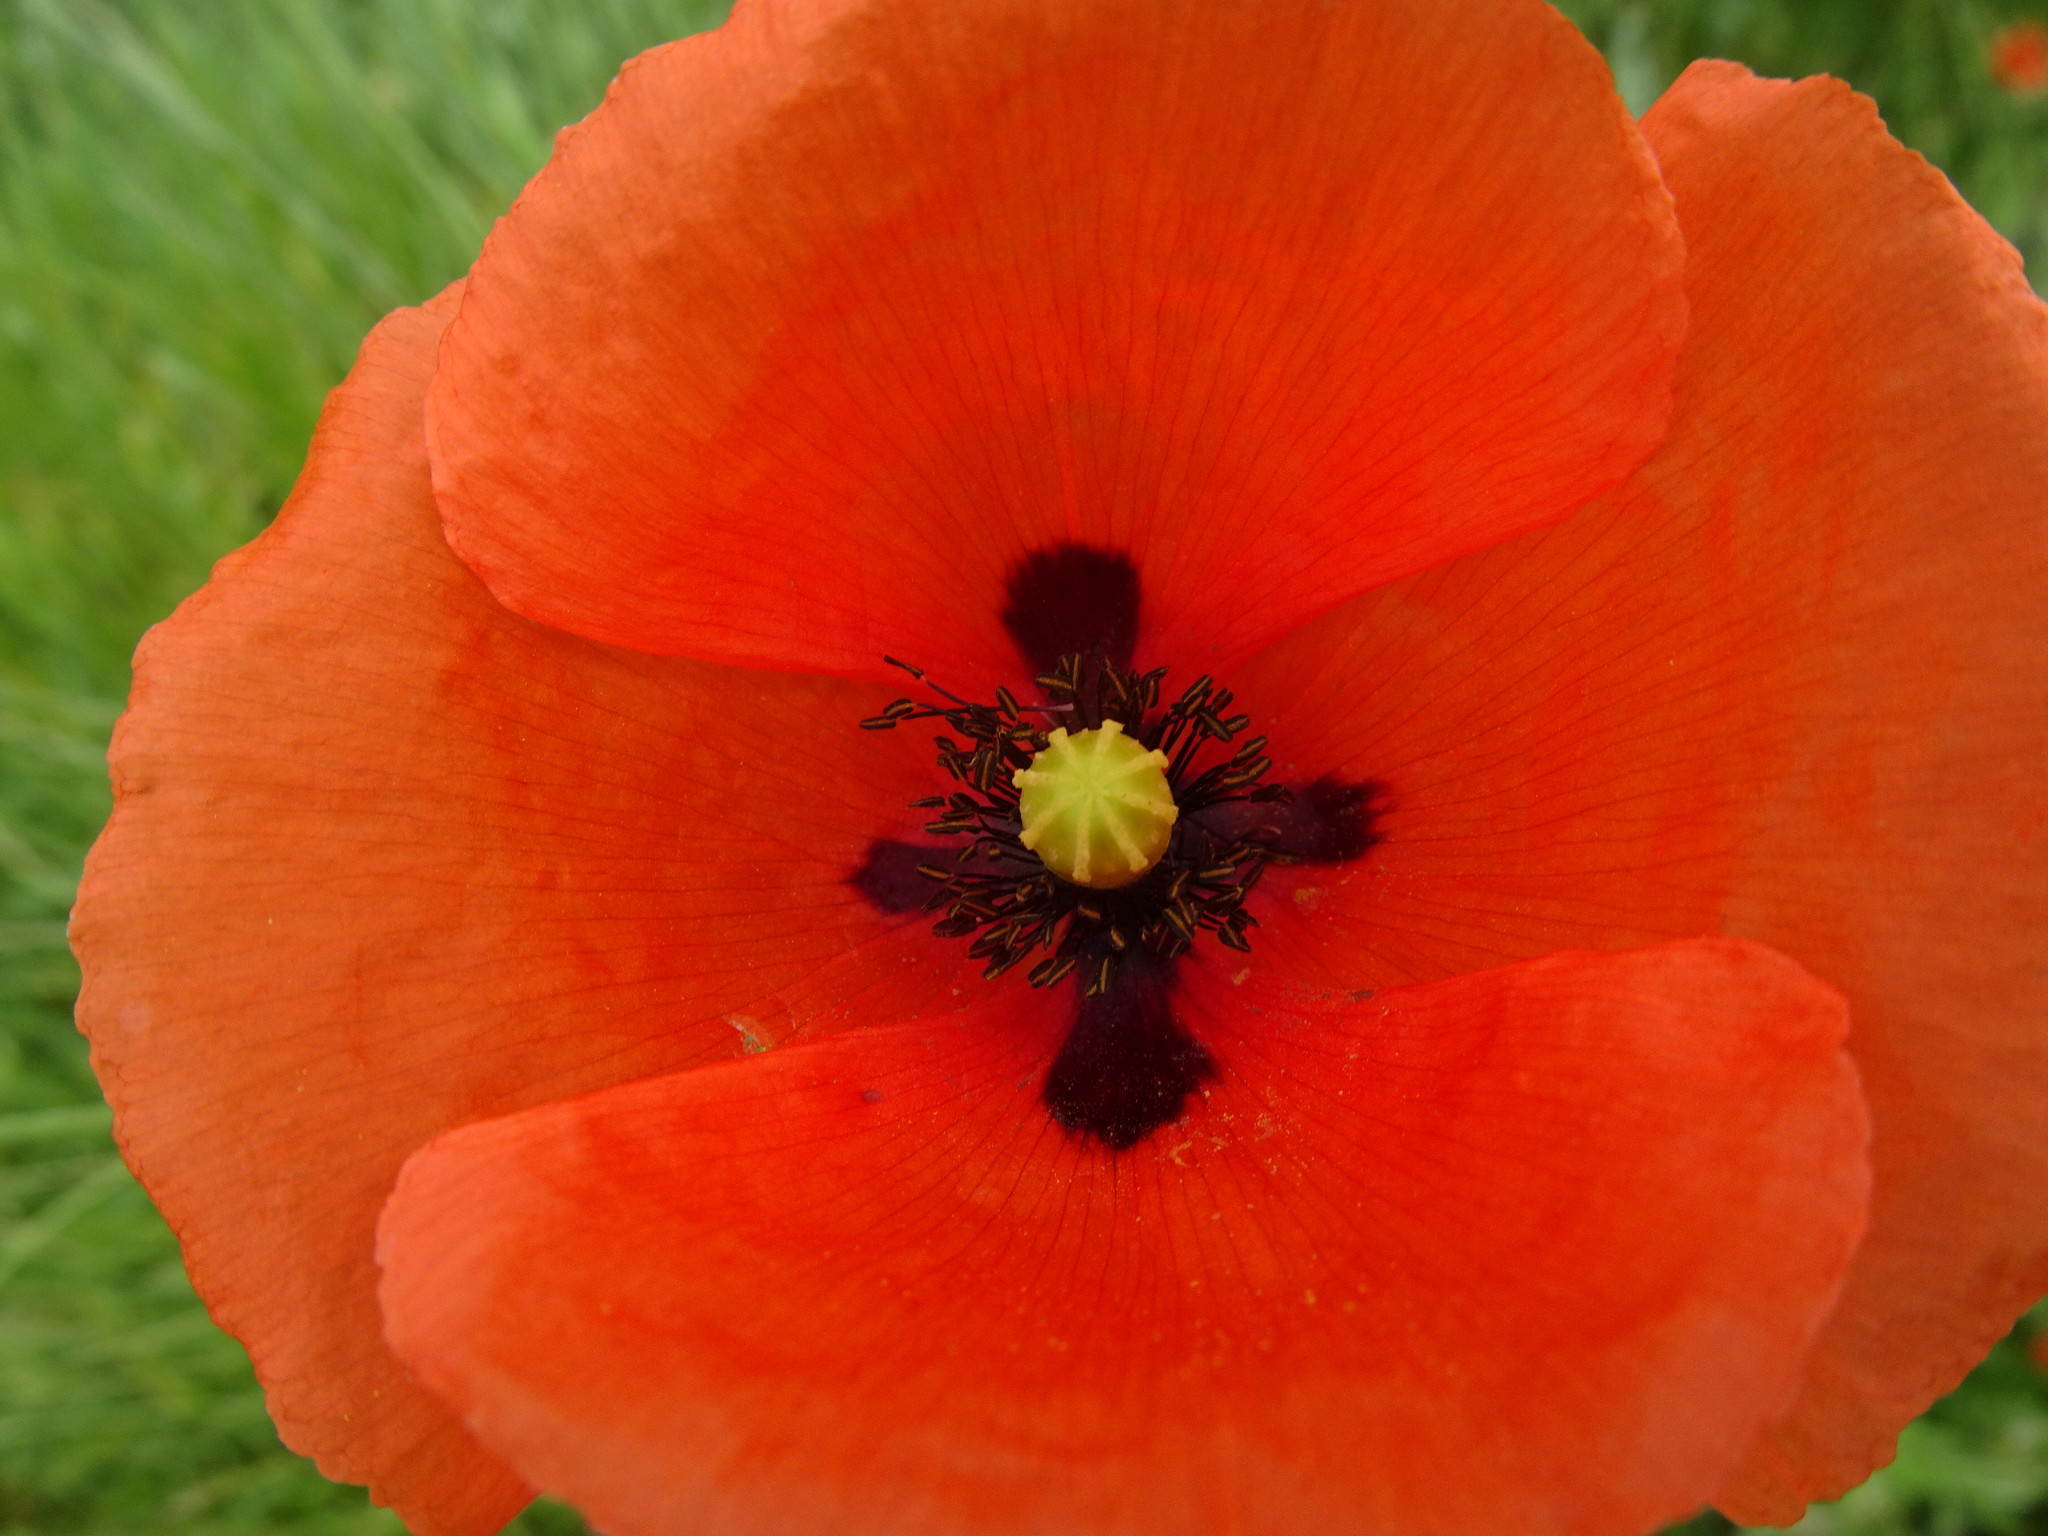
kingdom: Plantae
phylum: Tracheophyta
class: Magnoliopsida
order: Ranunculales
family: Papaveraceae
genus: Papaver
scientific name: Papaver dubium
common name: Long-headed poppy
